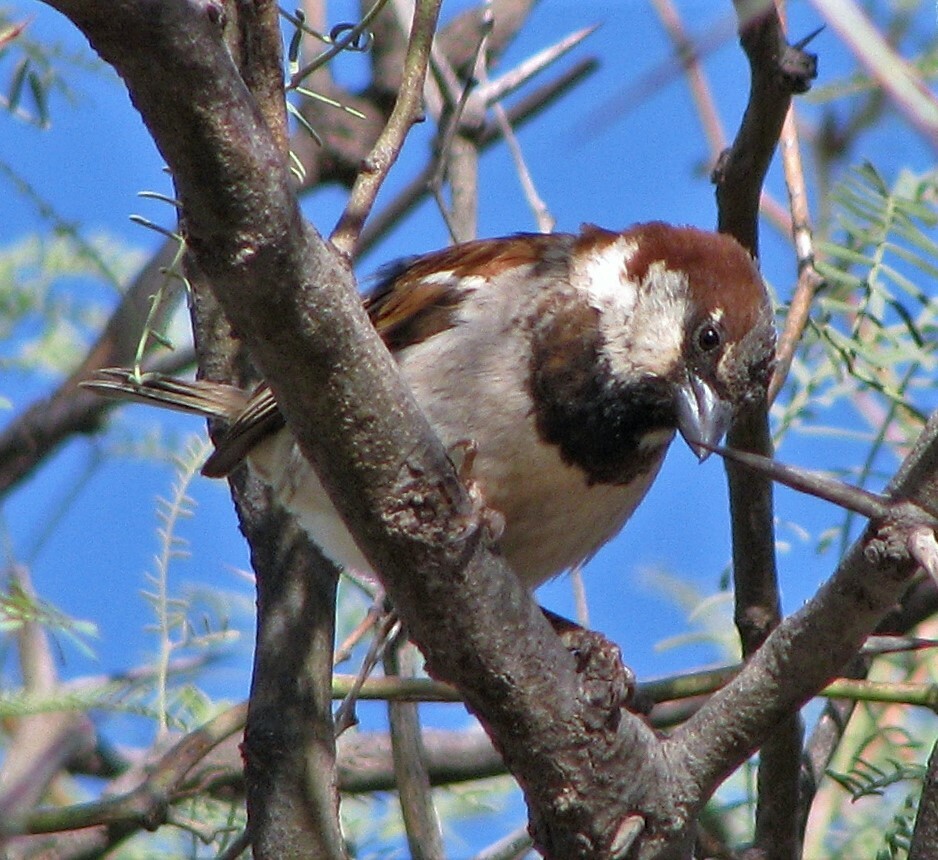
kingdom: Animalia
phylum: Chordata
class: Aves
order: Passeriformes
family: Passeridae
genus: Passer
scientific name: Passer domesticus
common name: House sparrow
